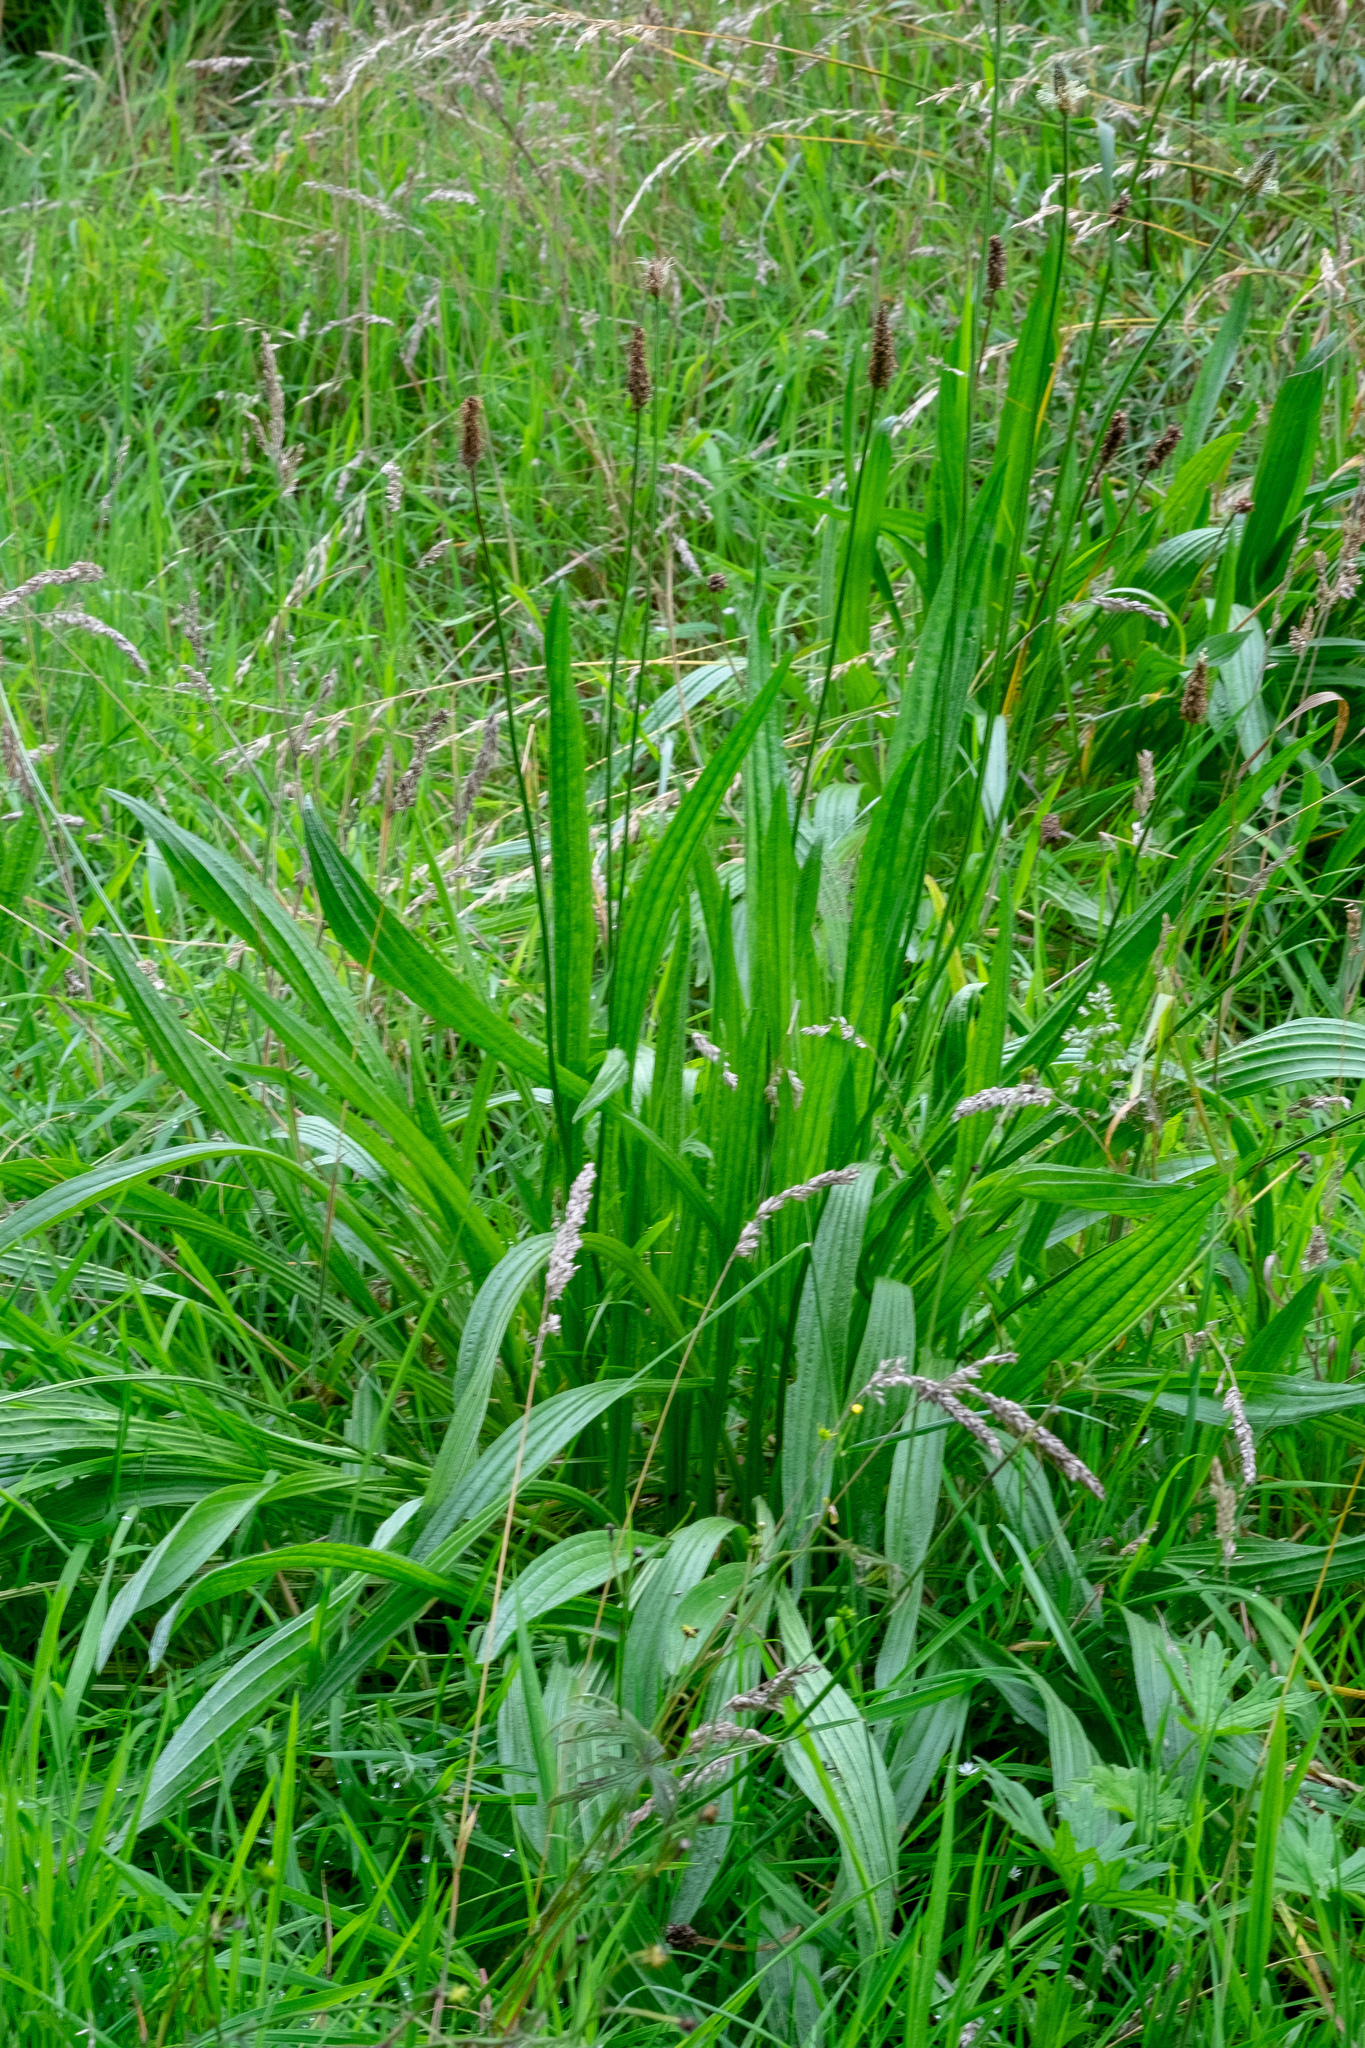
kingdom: Plantae
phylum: Tracheophyta
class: Magnoliopsida
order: Lamiales
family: Plantaginaceae
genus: Plantago
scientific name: Plantago lanceolata
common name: Ribwort plantain
